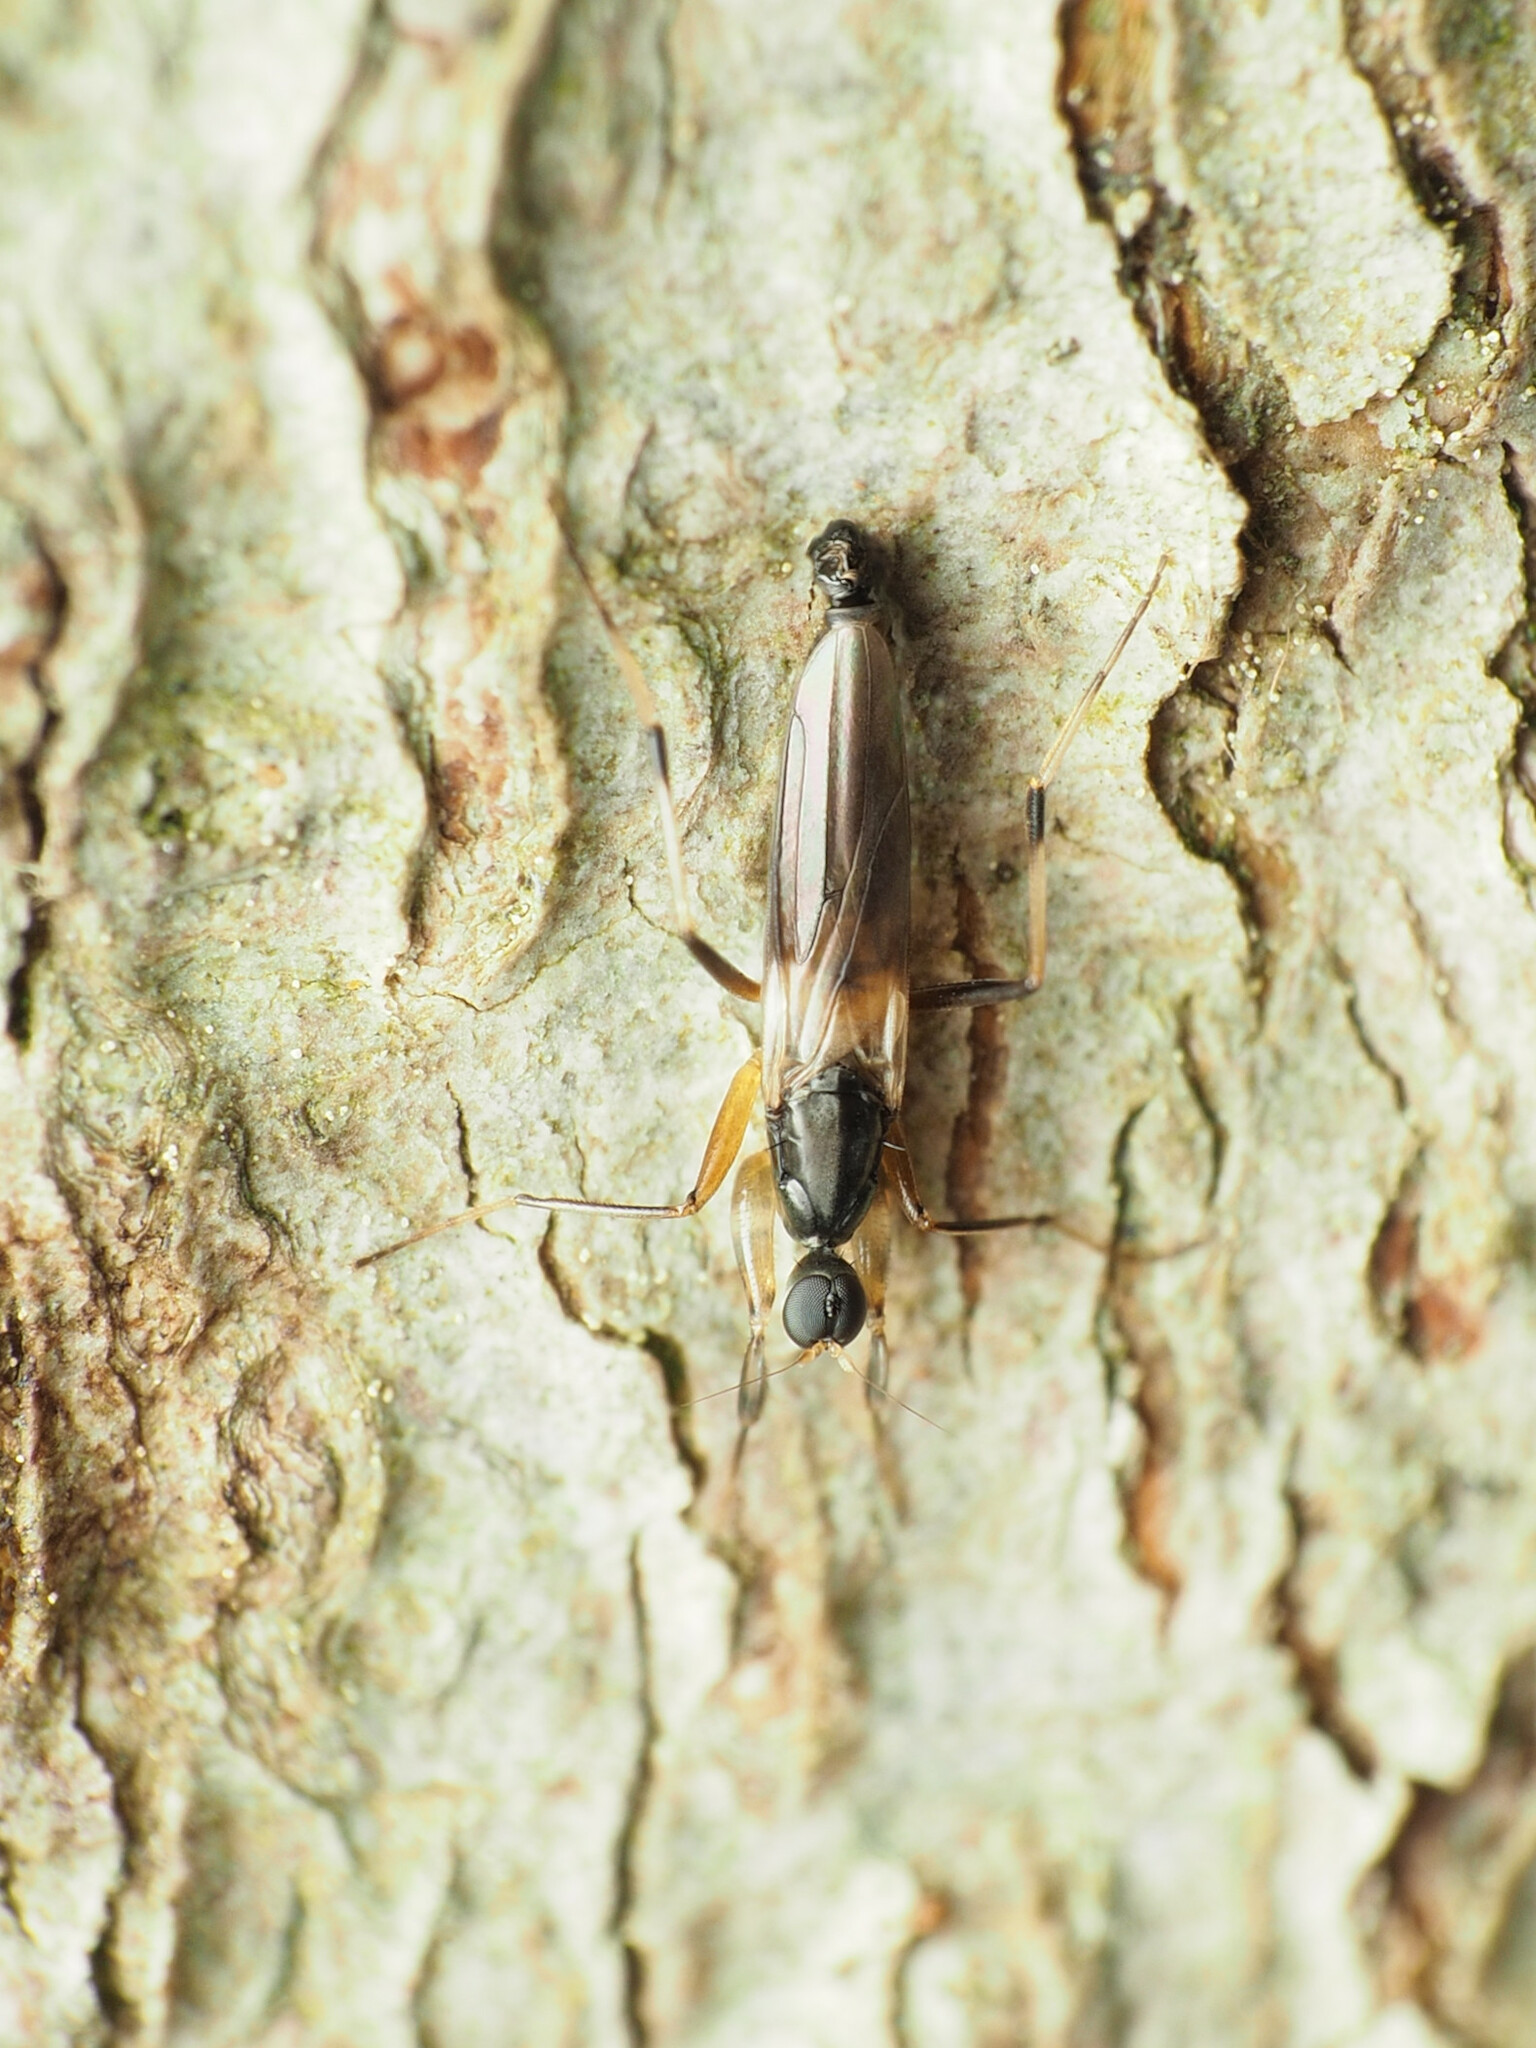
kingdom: Animalia
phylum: Arthropoda
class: Insecta
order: Diptera
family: Hybotidae
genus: Tachypeza
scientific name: Tachypeza fenestrata
